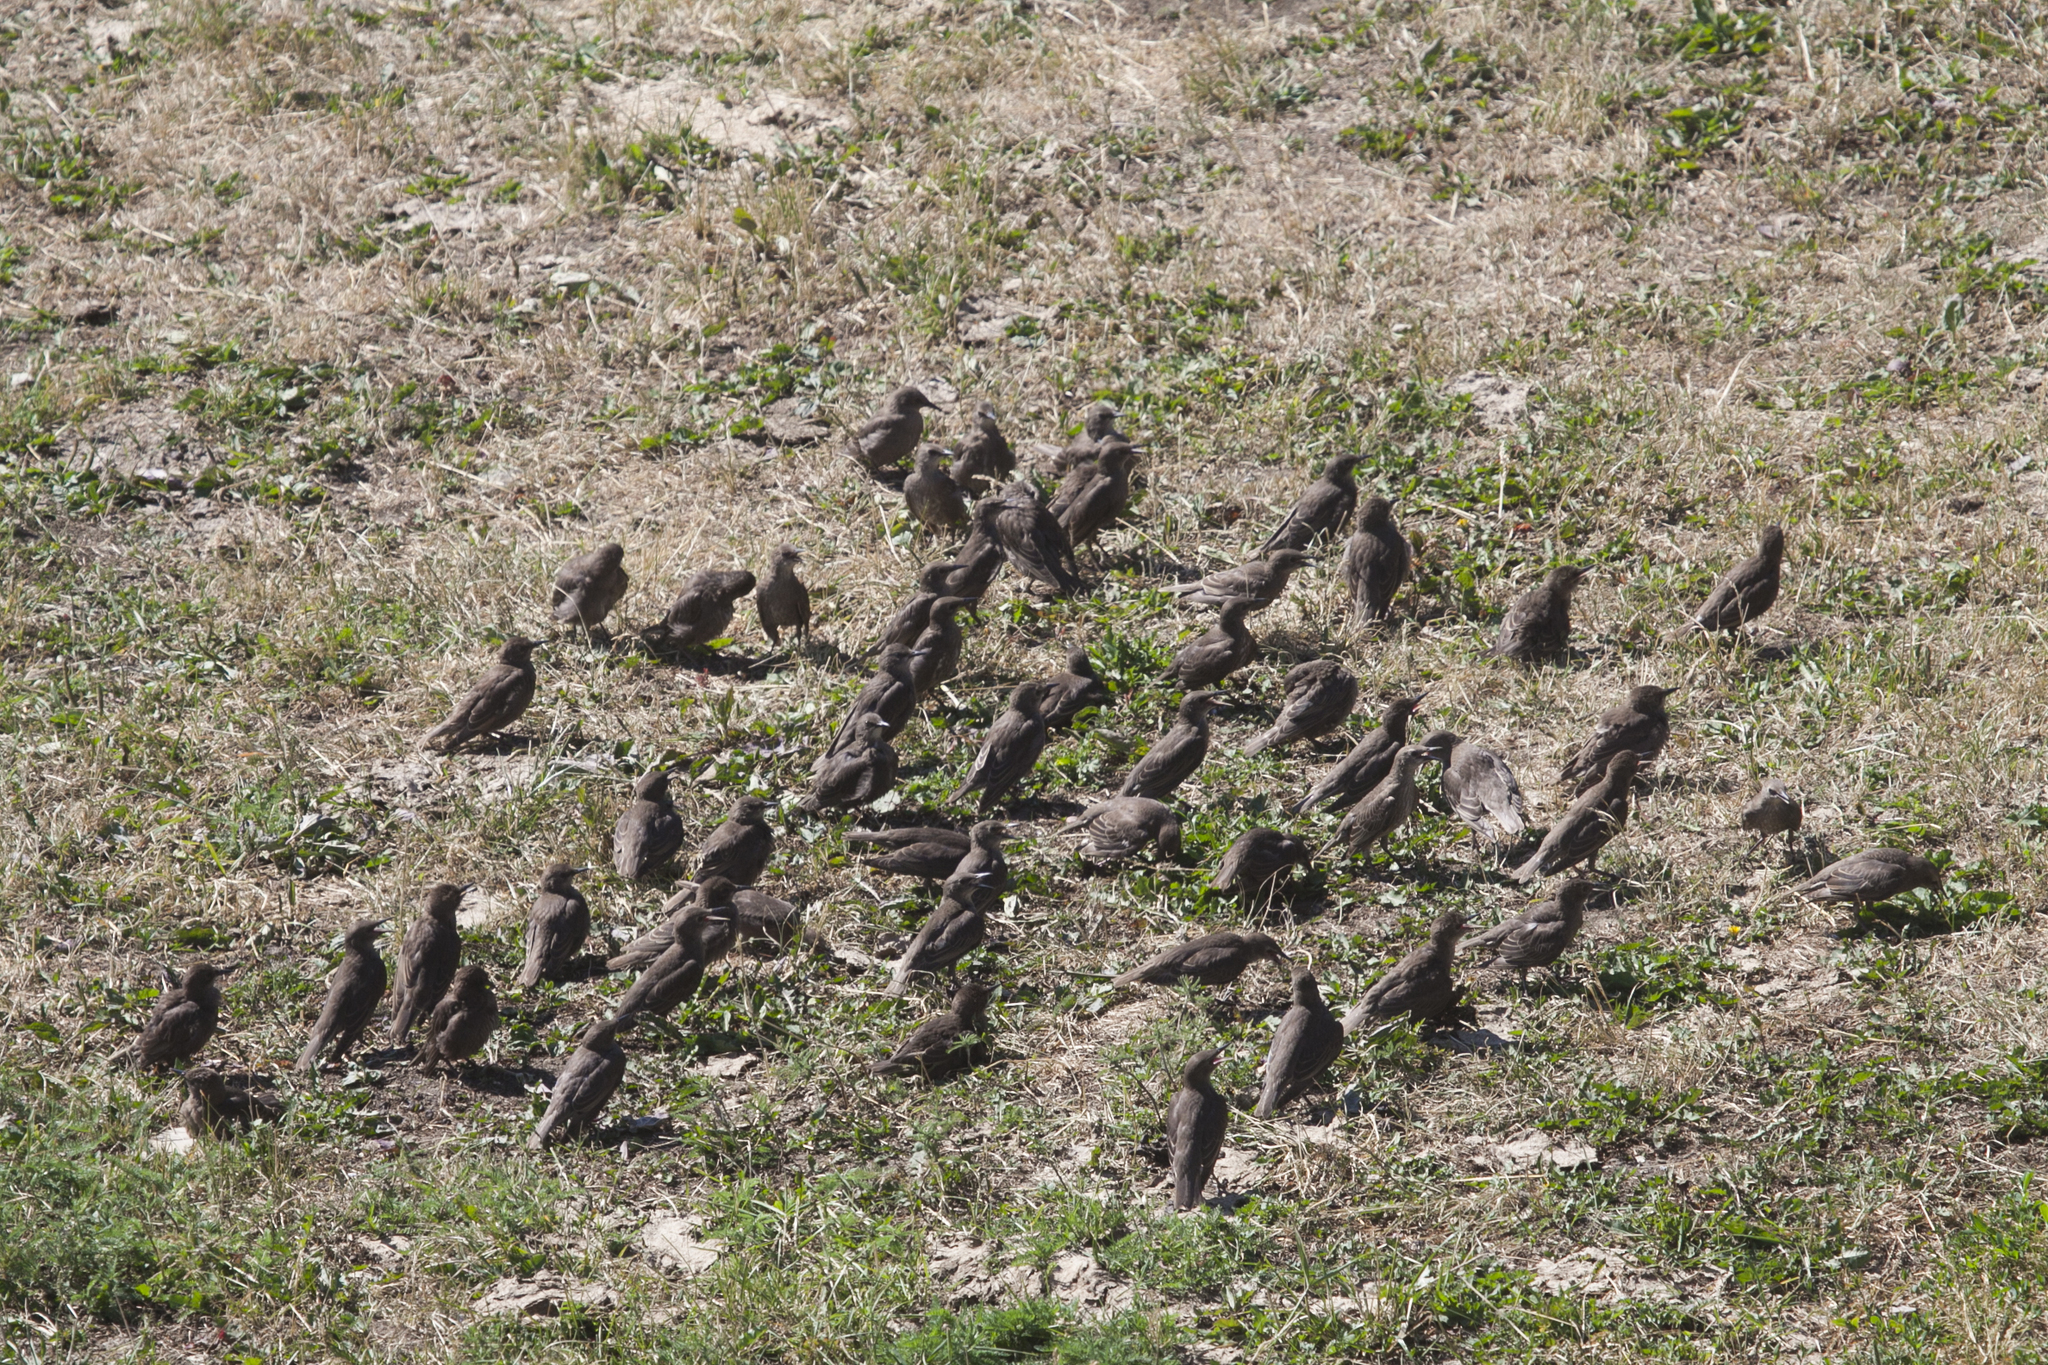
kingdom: Animalia
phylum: Chordata
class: Aves
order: Passeriformes
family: Sturnidae
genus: Sturnus
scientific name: Sturnus vulgaris
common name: Common starling
